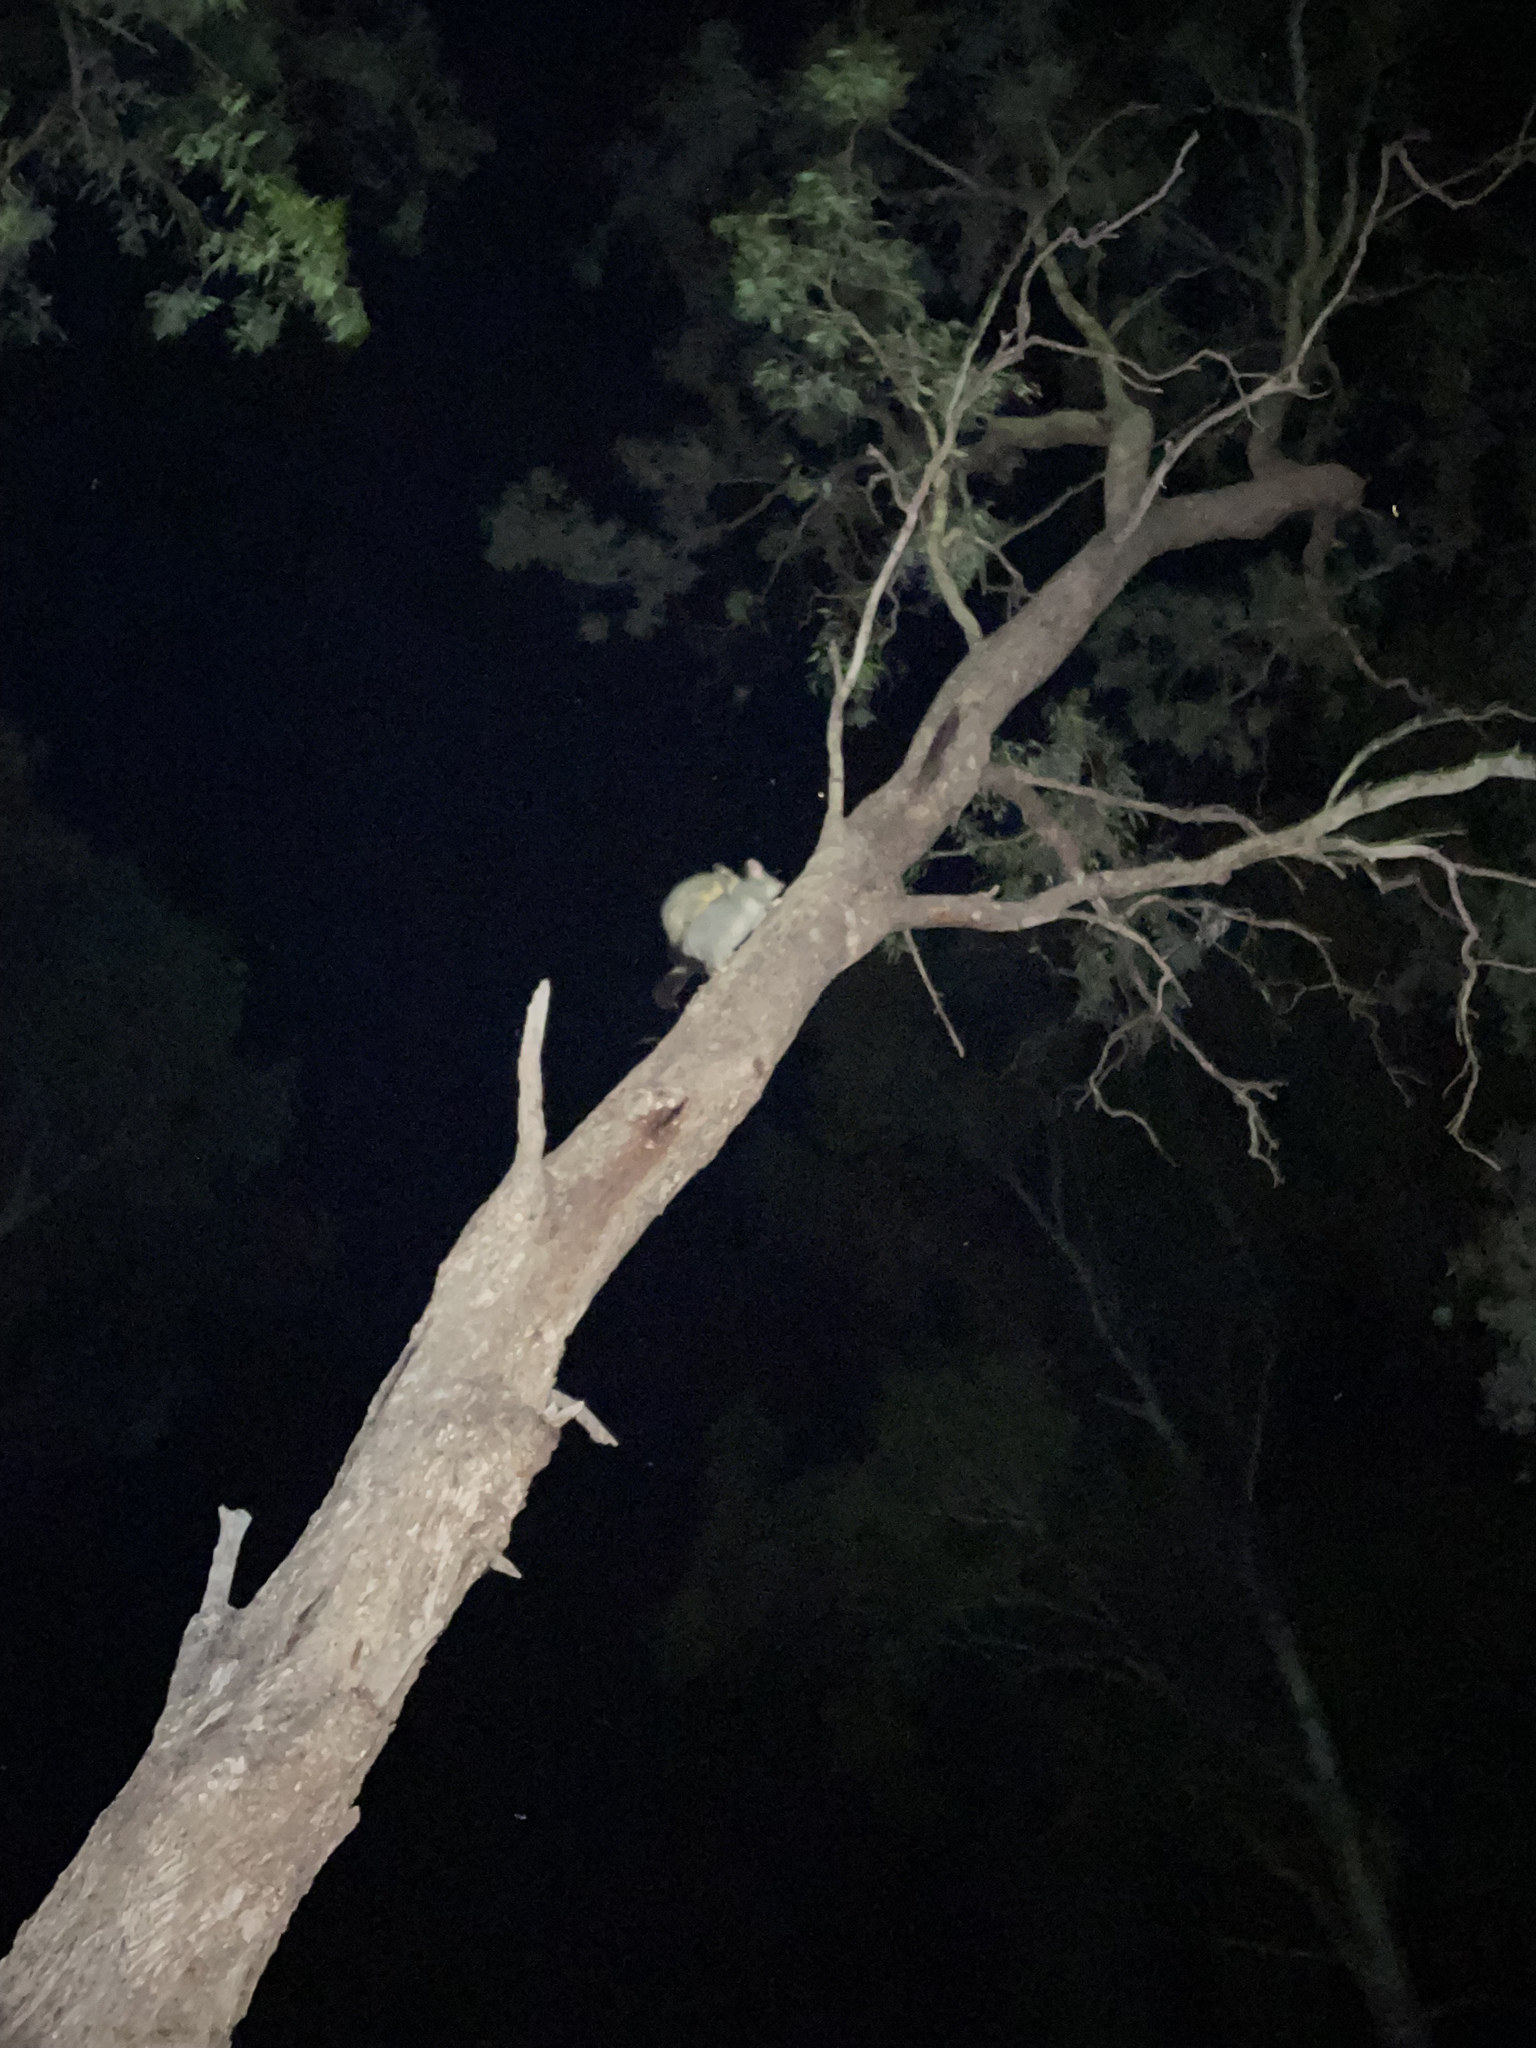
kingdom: Animalia
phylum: Chordata
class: Mammalia
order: Diprotodontia
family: Phalangeridae
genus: Trichosurus
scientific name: Trichosurus vulpecula
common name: Common brushtail
